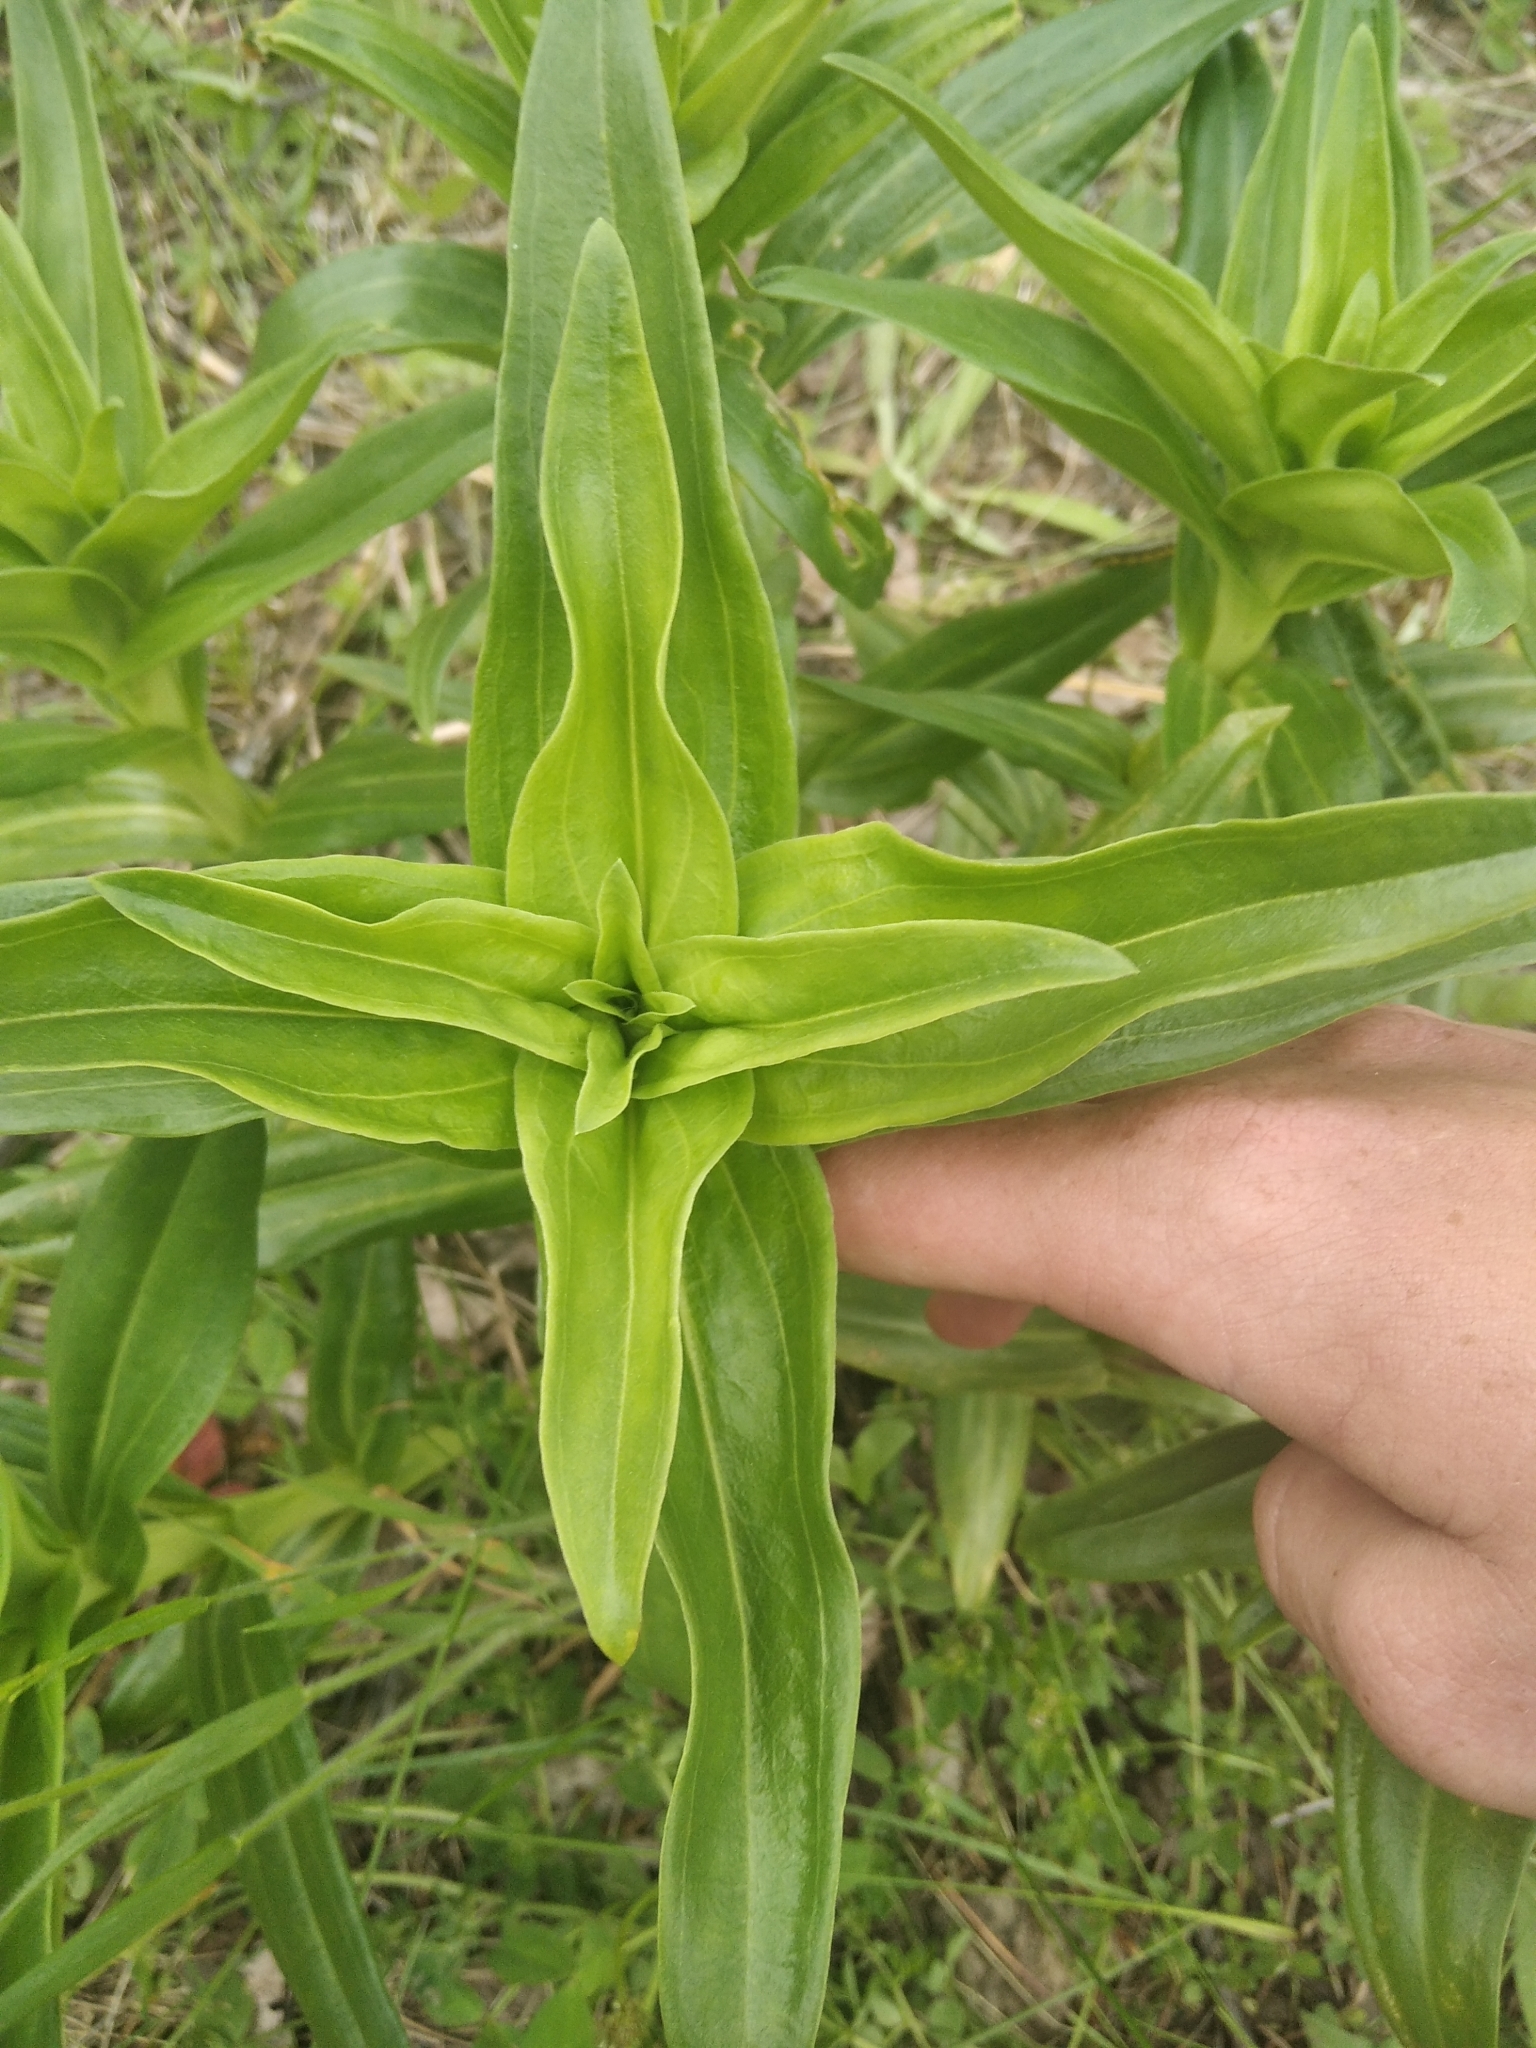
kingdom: Plantae
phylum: Tracheophyta
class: Magnoliopsida
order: Gentianales
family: Gentianaceae
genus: Gentiana
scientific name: Gentiana cruciata
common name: Cross gentian
